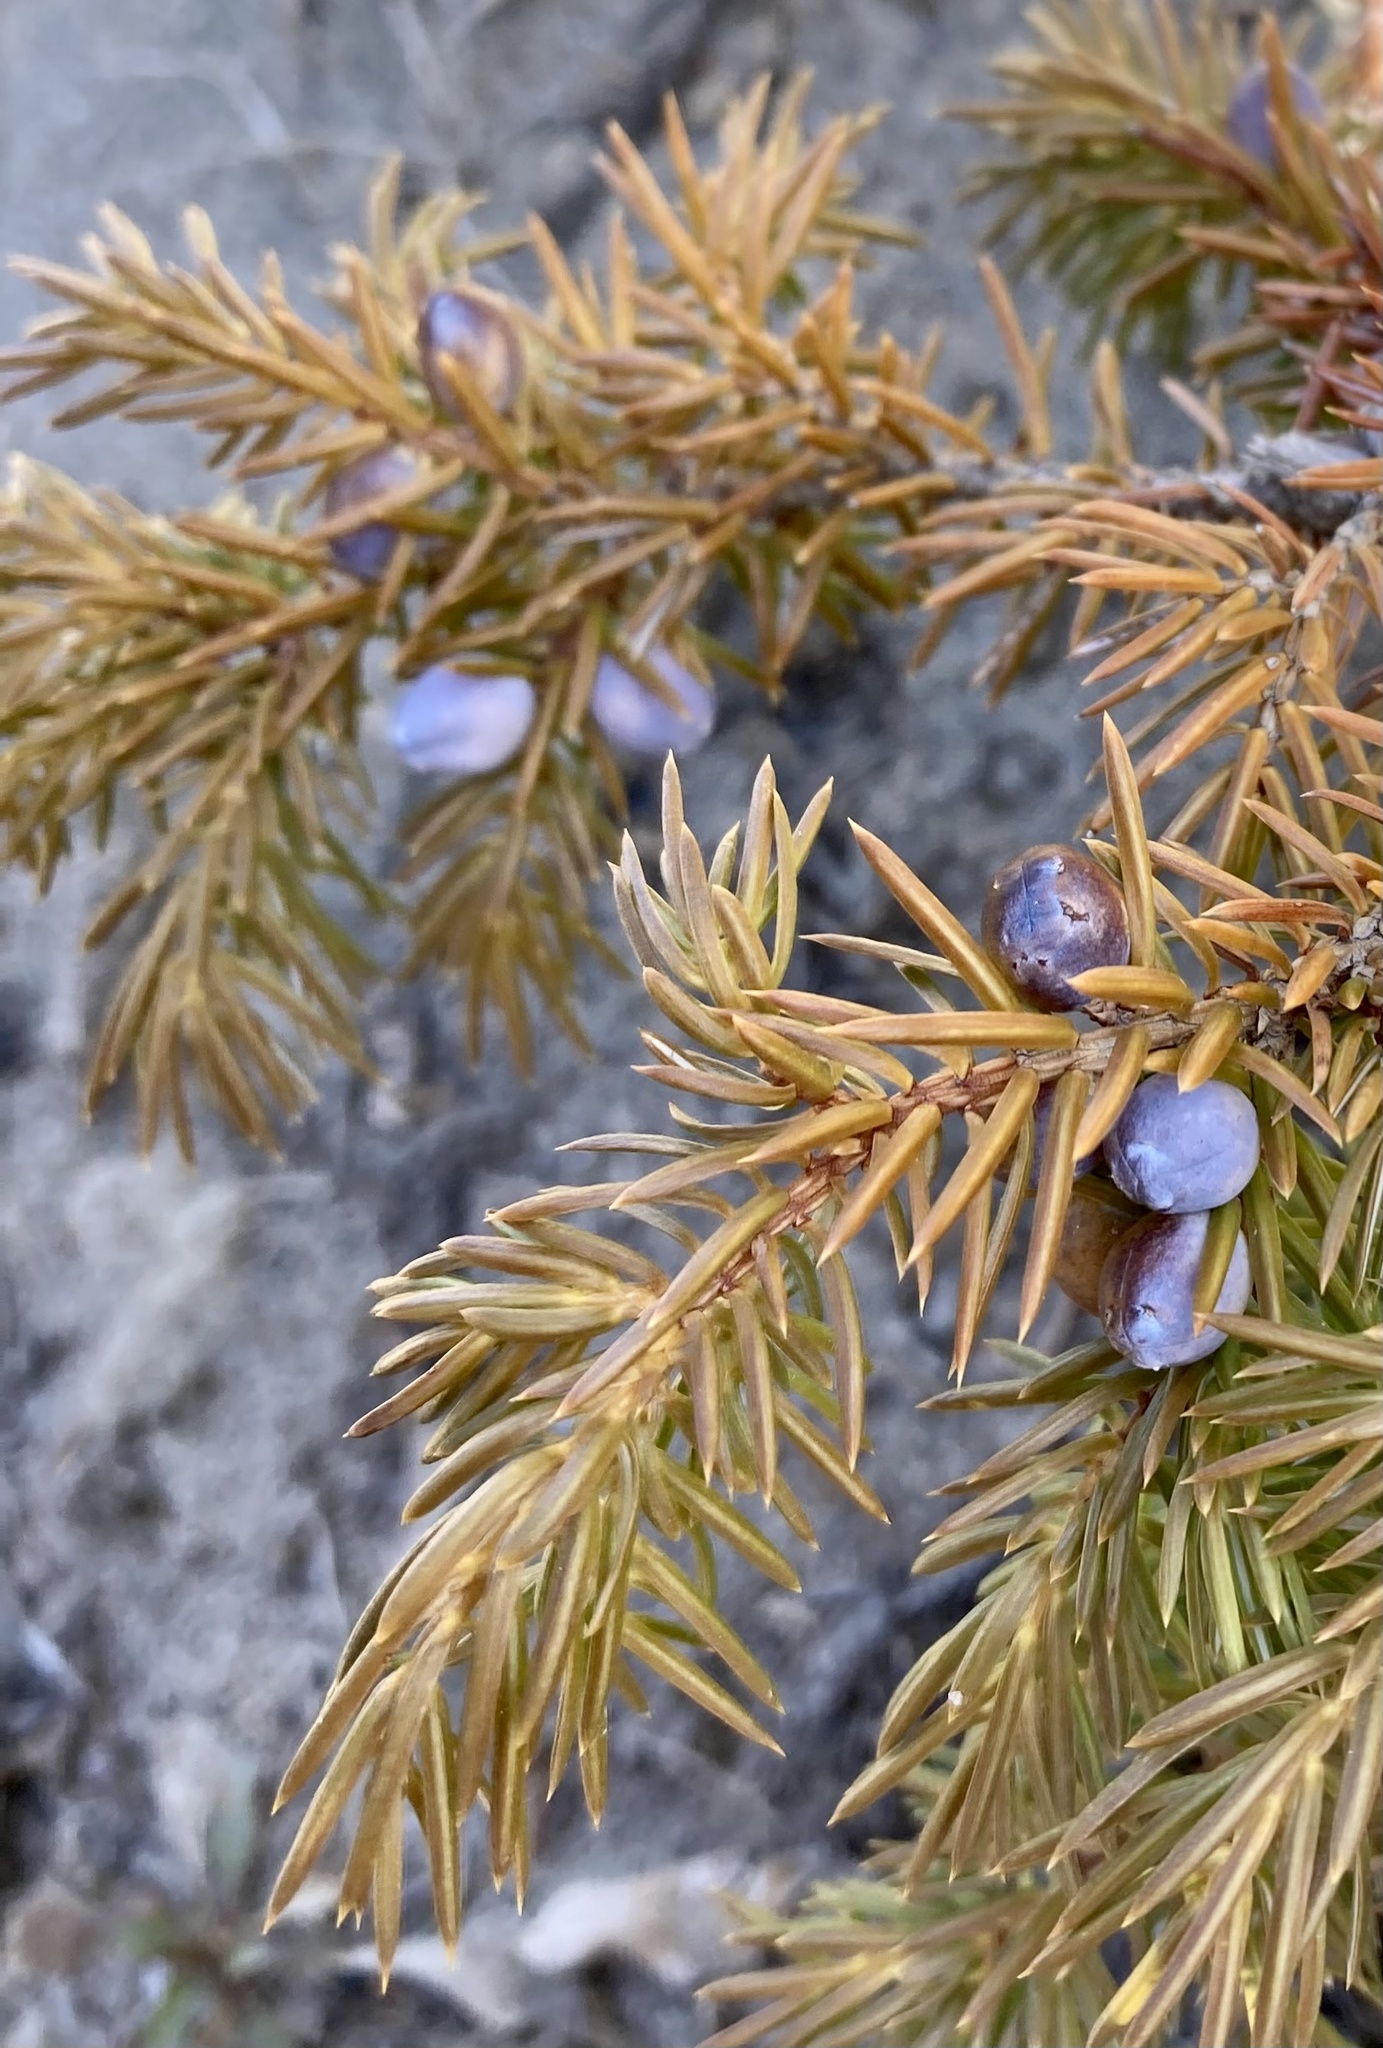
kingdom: Plantae
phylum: Tracheophyta
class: Pinopsida
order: Pinales
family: Cupressaceae
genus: Juniperus
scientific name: Juniperus communis
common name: Common juniper
